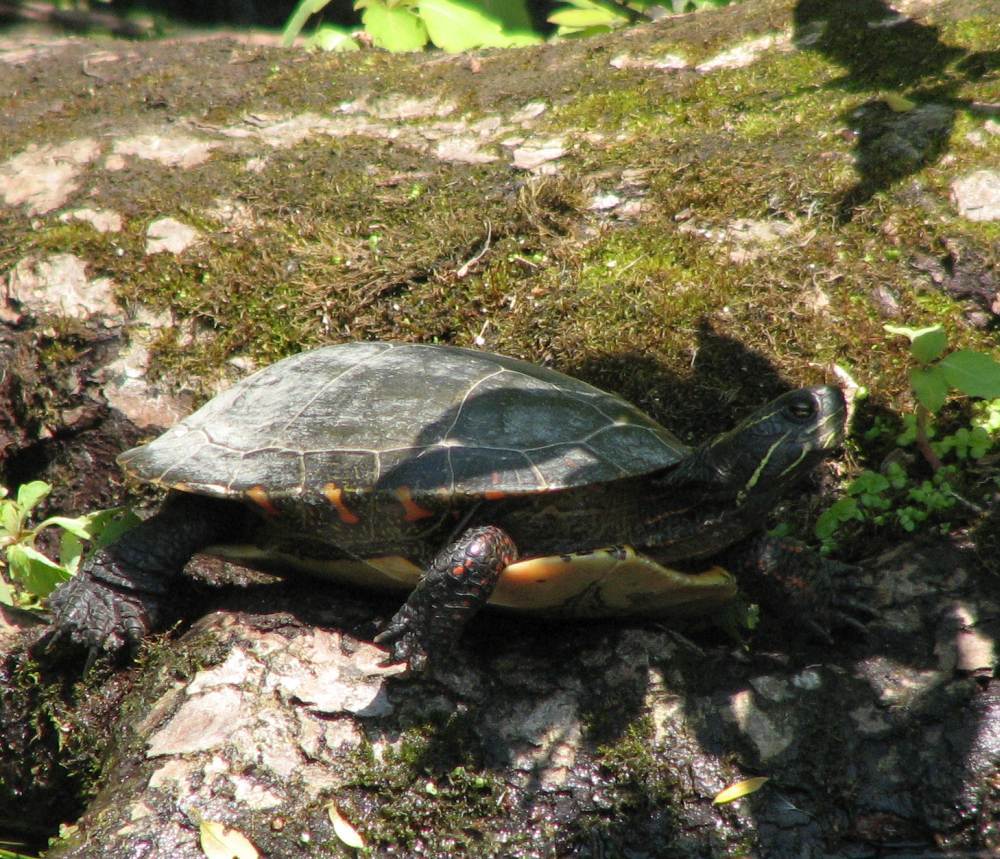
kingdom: Animalia
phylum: Chordata
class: Testudines
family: Emydidae
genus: Chrysemys
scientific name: Chrysemys picta
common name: Painted turtle
